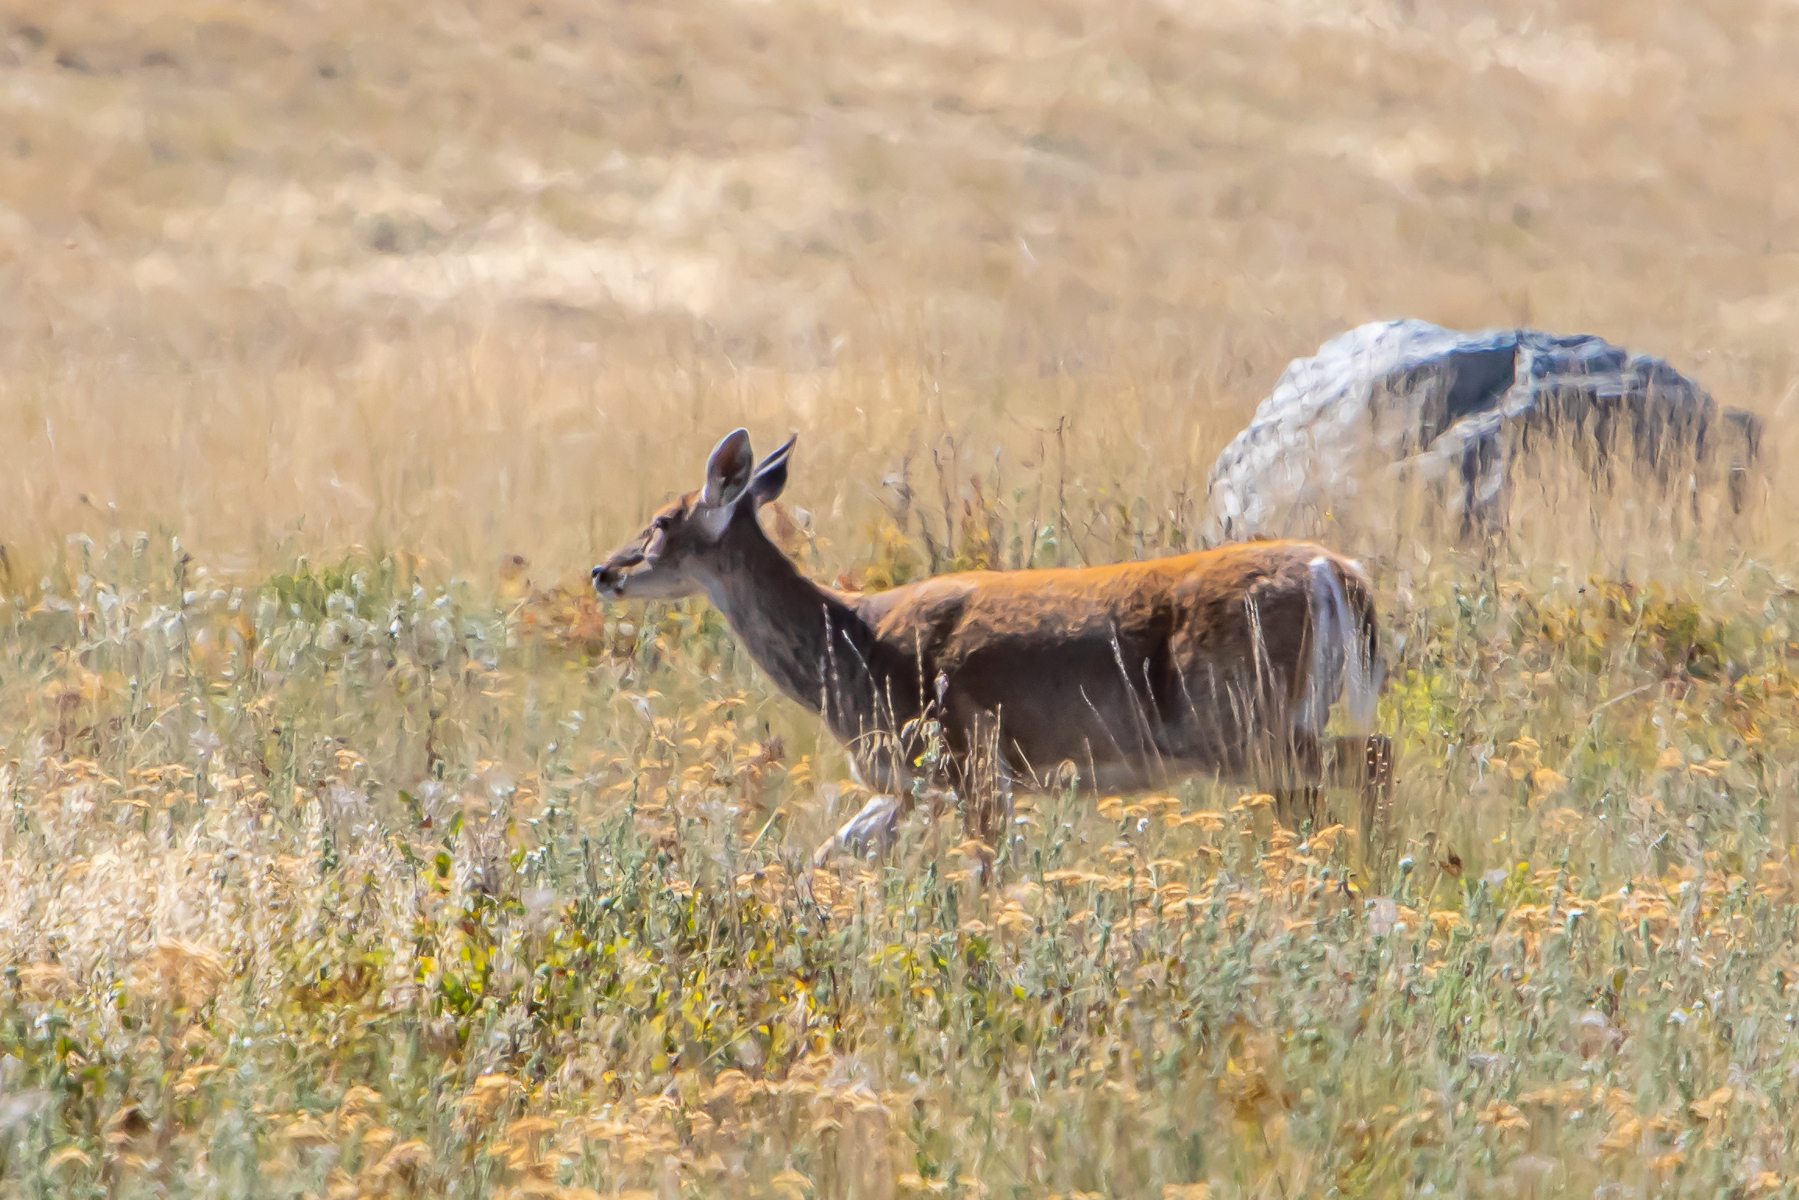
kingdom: Animalia
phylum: Chordata
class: Mammalia
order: Artiodactyla
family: Cervidae
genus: Odocoileus
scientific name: Odocoileus virginianus
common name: White-tailed deer
